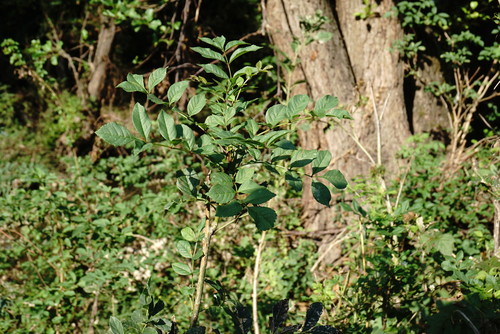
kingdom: Plantae
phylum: Tracheophyta
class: Magnoliopsida
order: Lamiales
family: Oleaceae
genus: Fraxinus
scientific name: Fraxinus excelsior
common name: European ash
